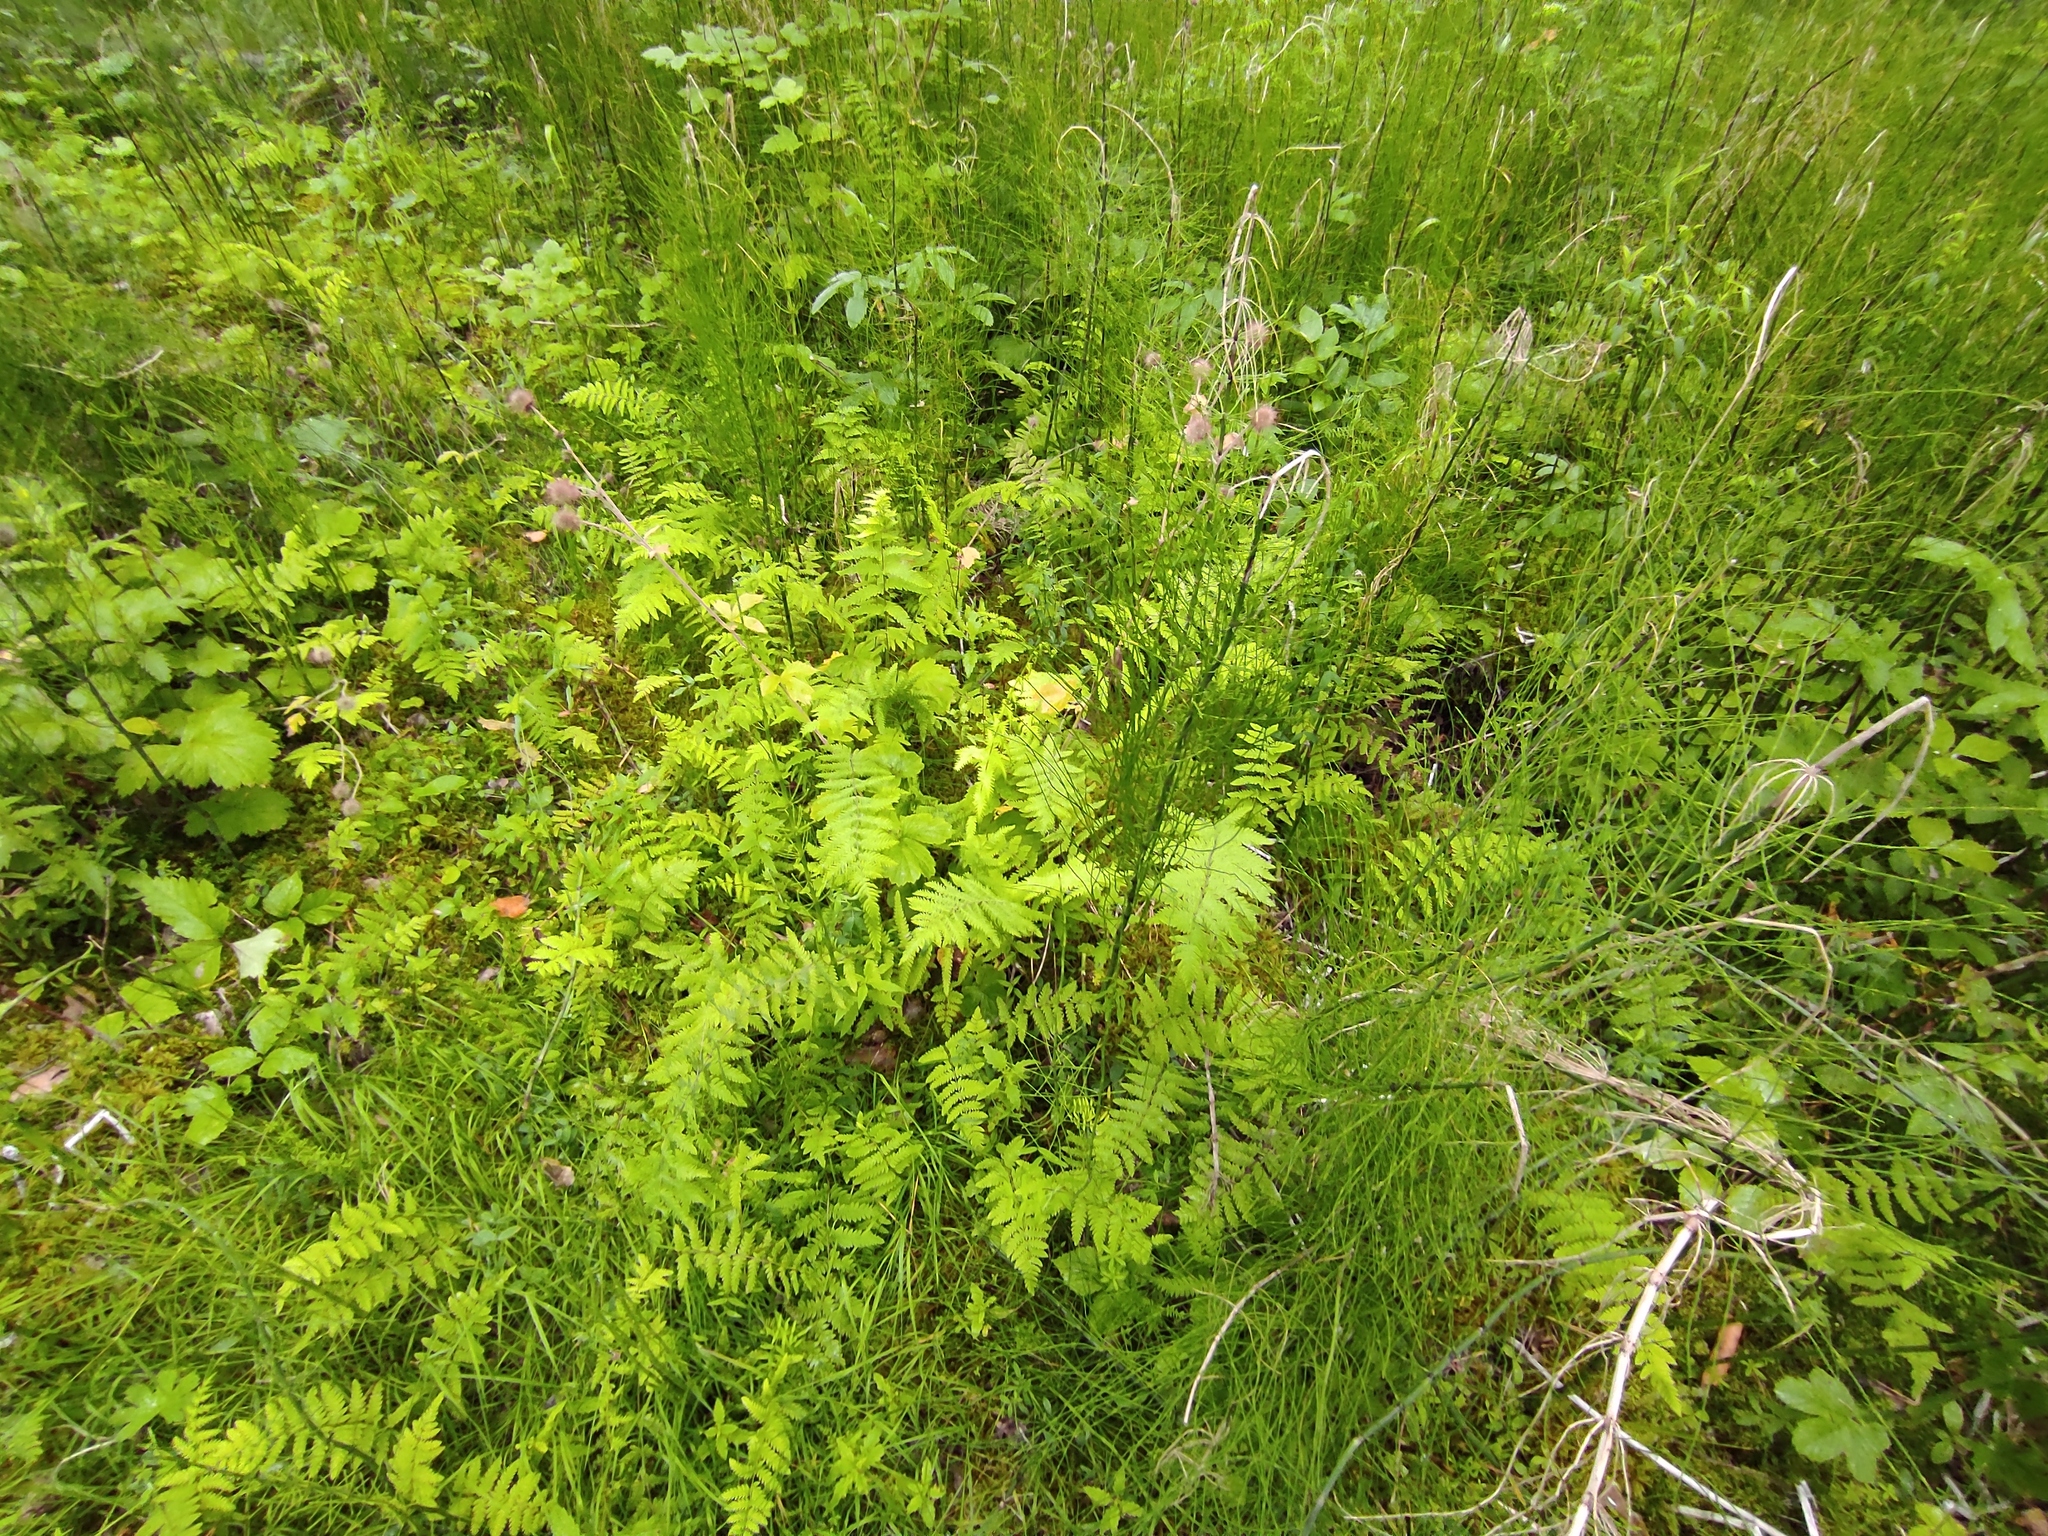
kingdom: Plantae
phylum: Tracheophyta
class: Polypodiopsida
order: Polypodiales
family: Thelypteridaceae
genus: Thelypteris
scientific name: Thelypteris palustris
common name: Marsh fern
